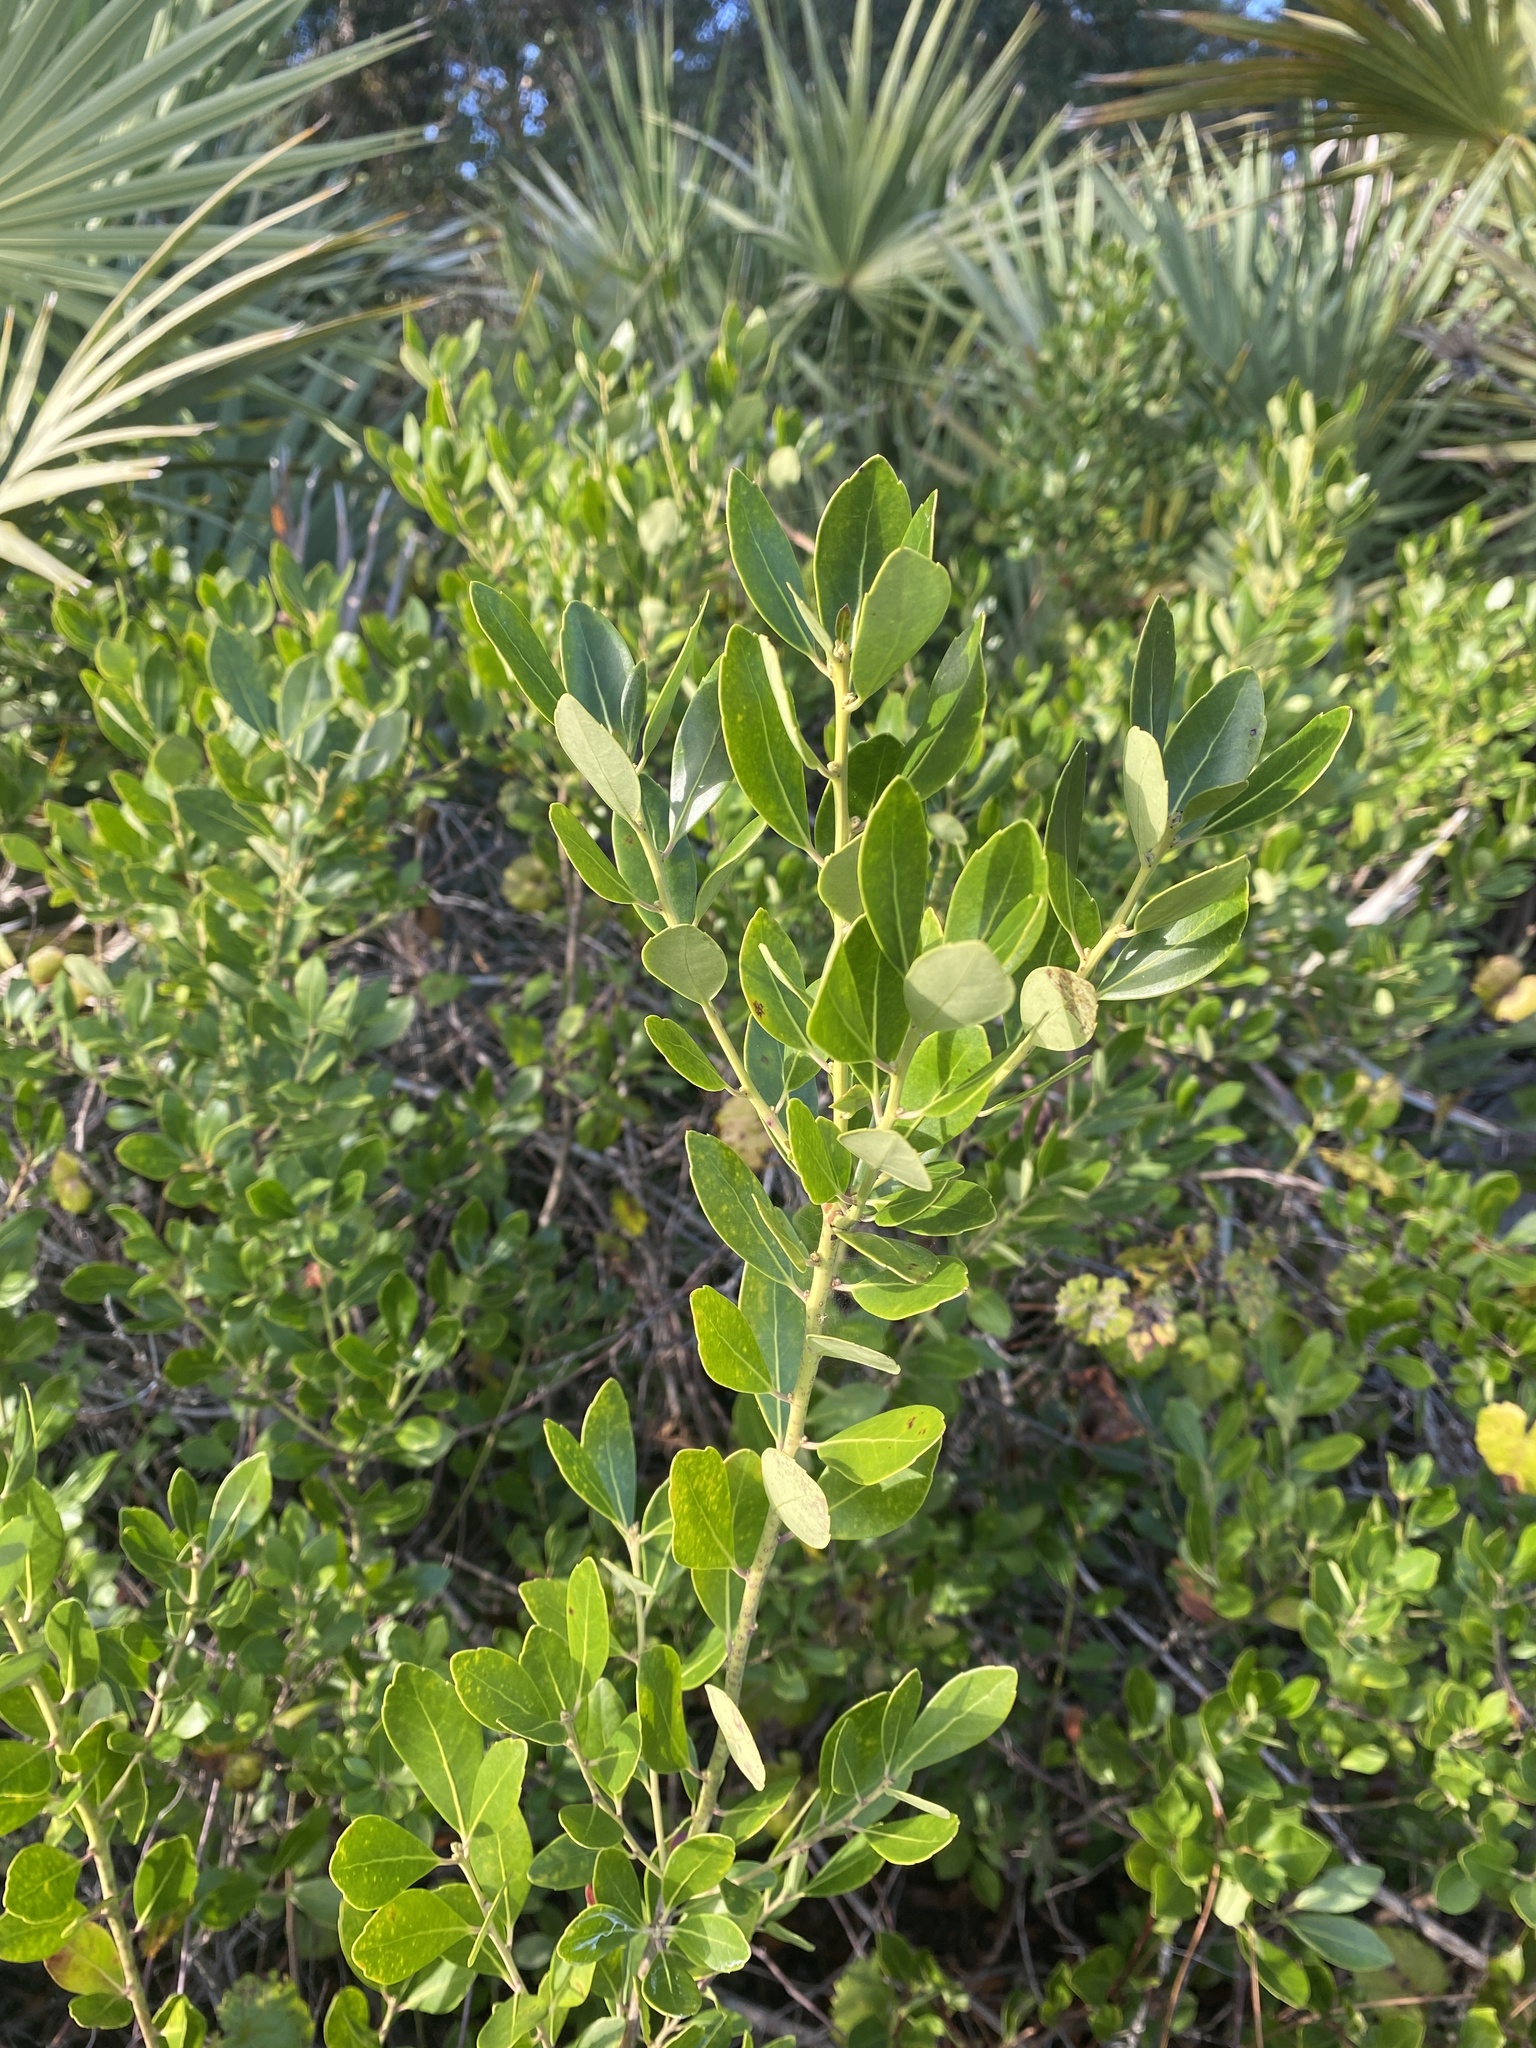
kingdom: Plantae
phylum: Tracheophyta
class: Magnoliopsida
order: Aquifoliales
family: Aquifoliaceae
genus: Ilex
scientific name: Ilex glabra
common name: Bitter gallberry
